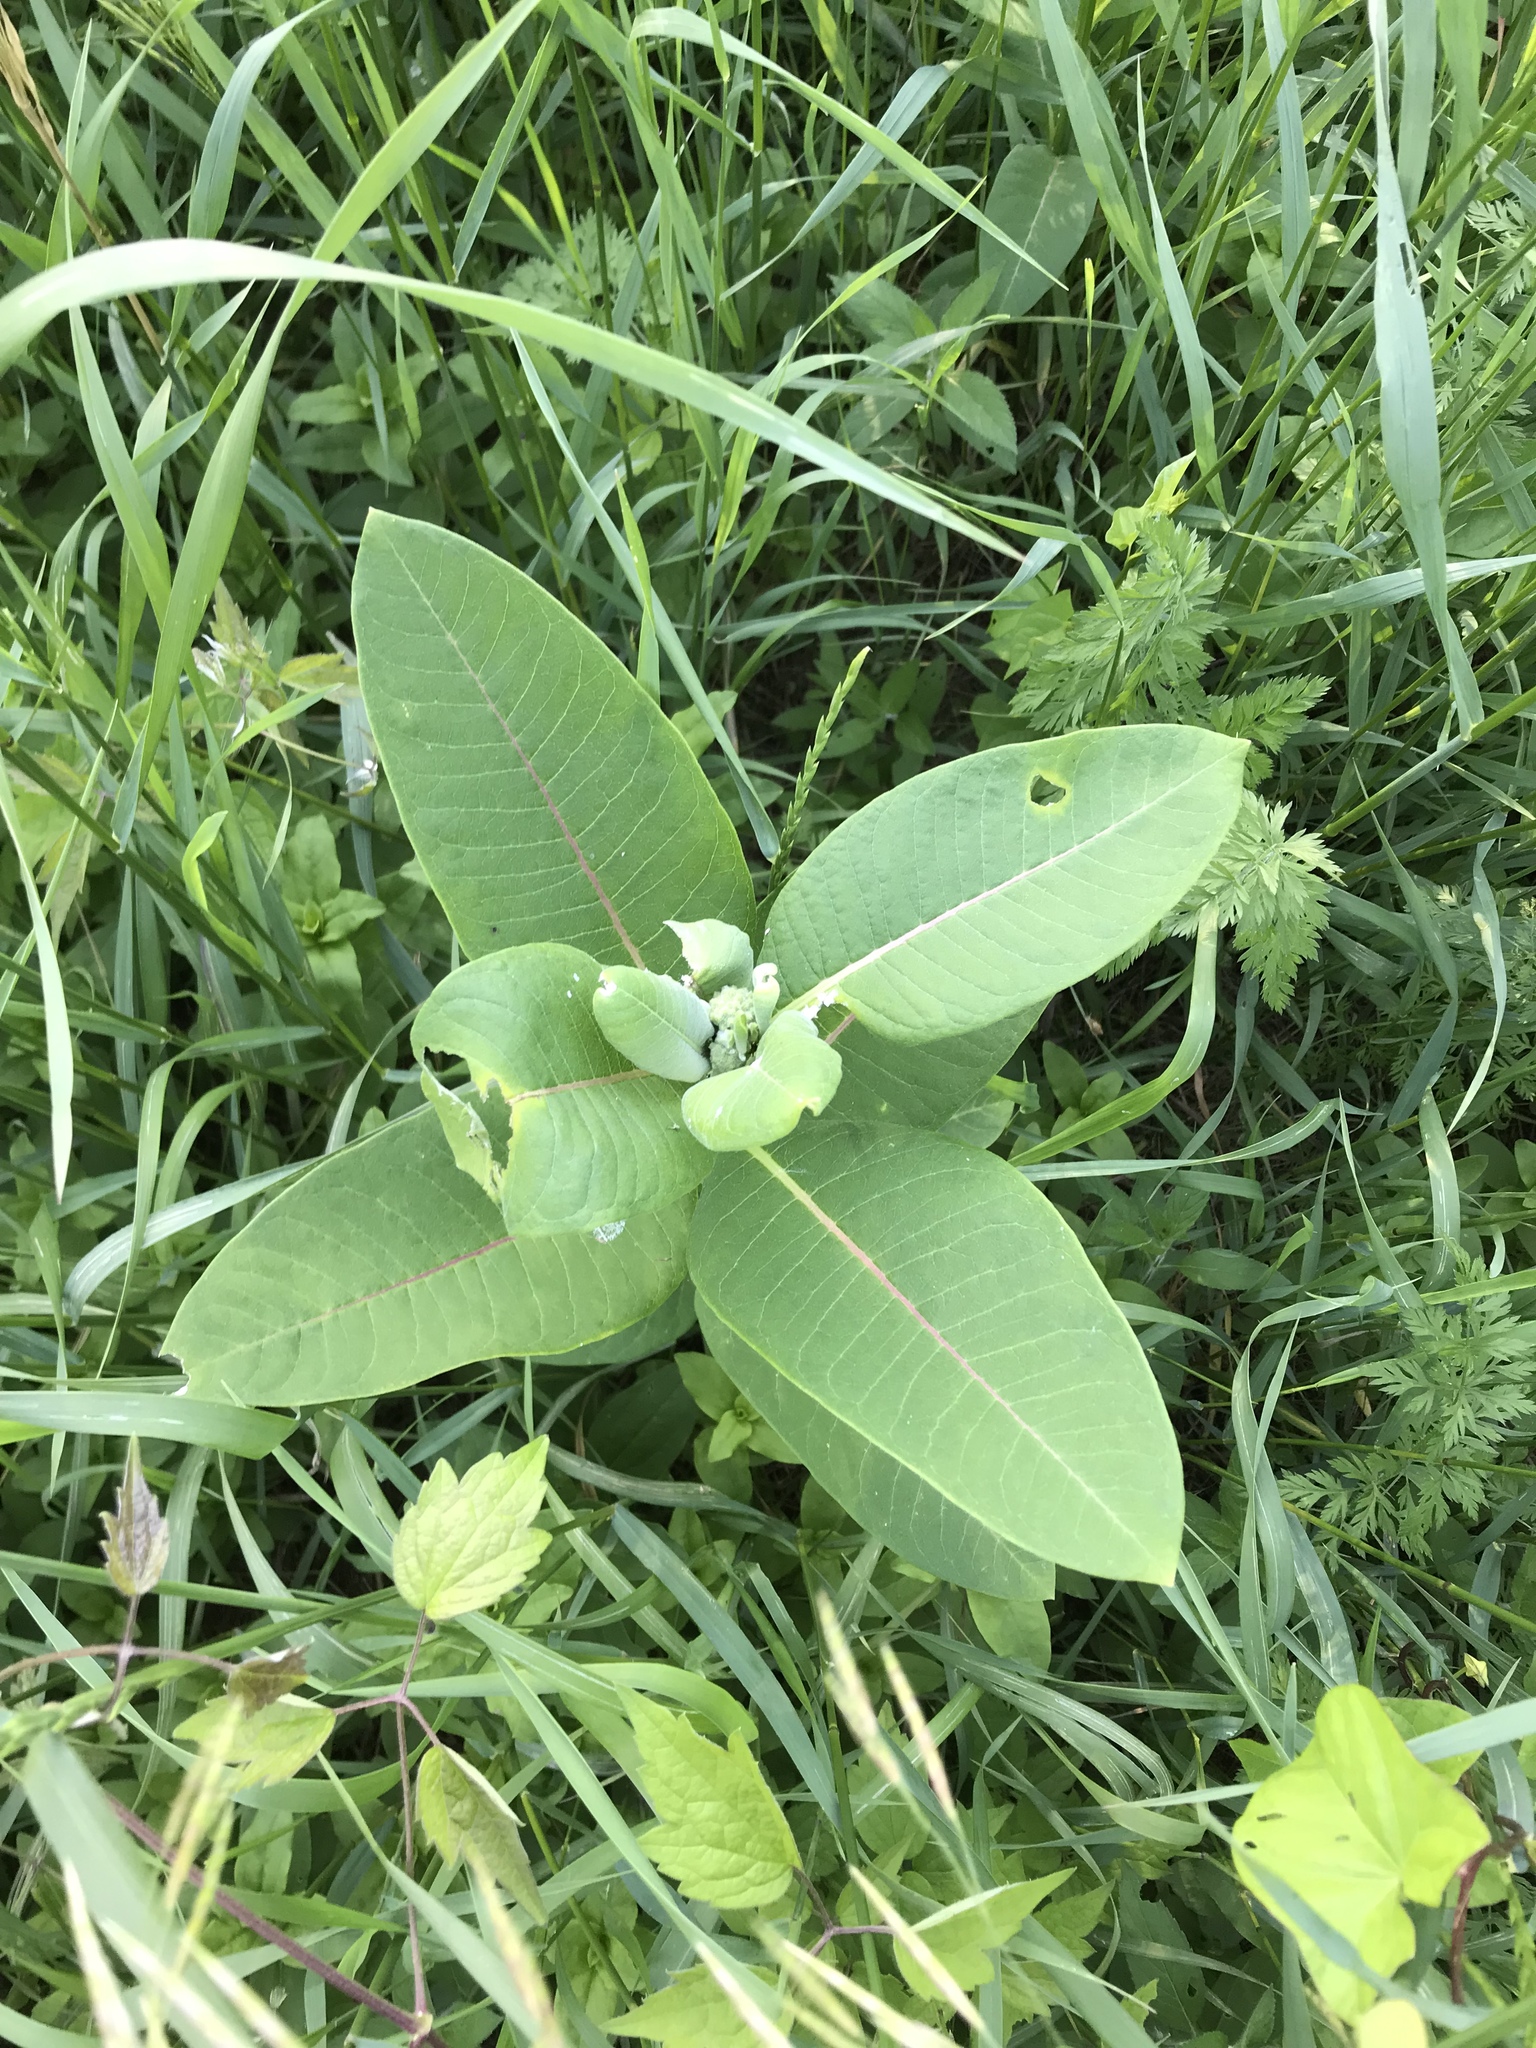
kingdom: Plantae
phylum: Tracheophyta
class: Magnoliopsida
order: Gentianales
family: Apocynaceae
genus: Asclepias
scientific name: Asclepias syriaca
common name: Common milkweed
